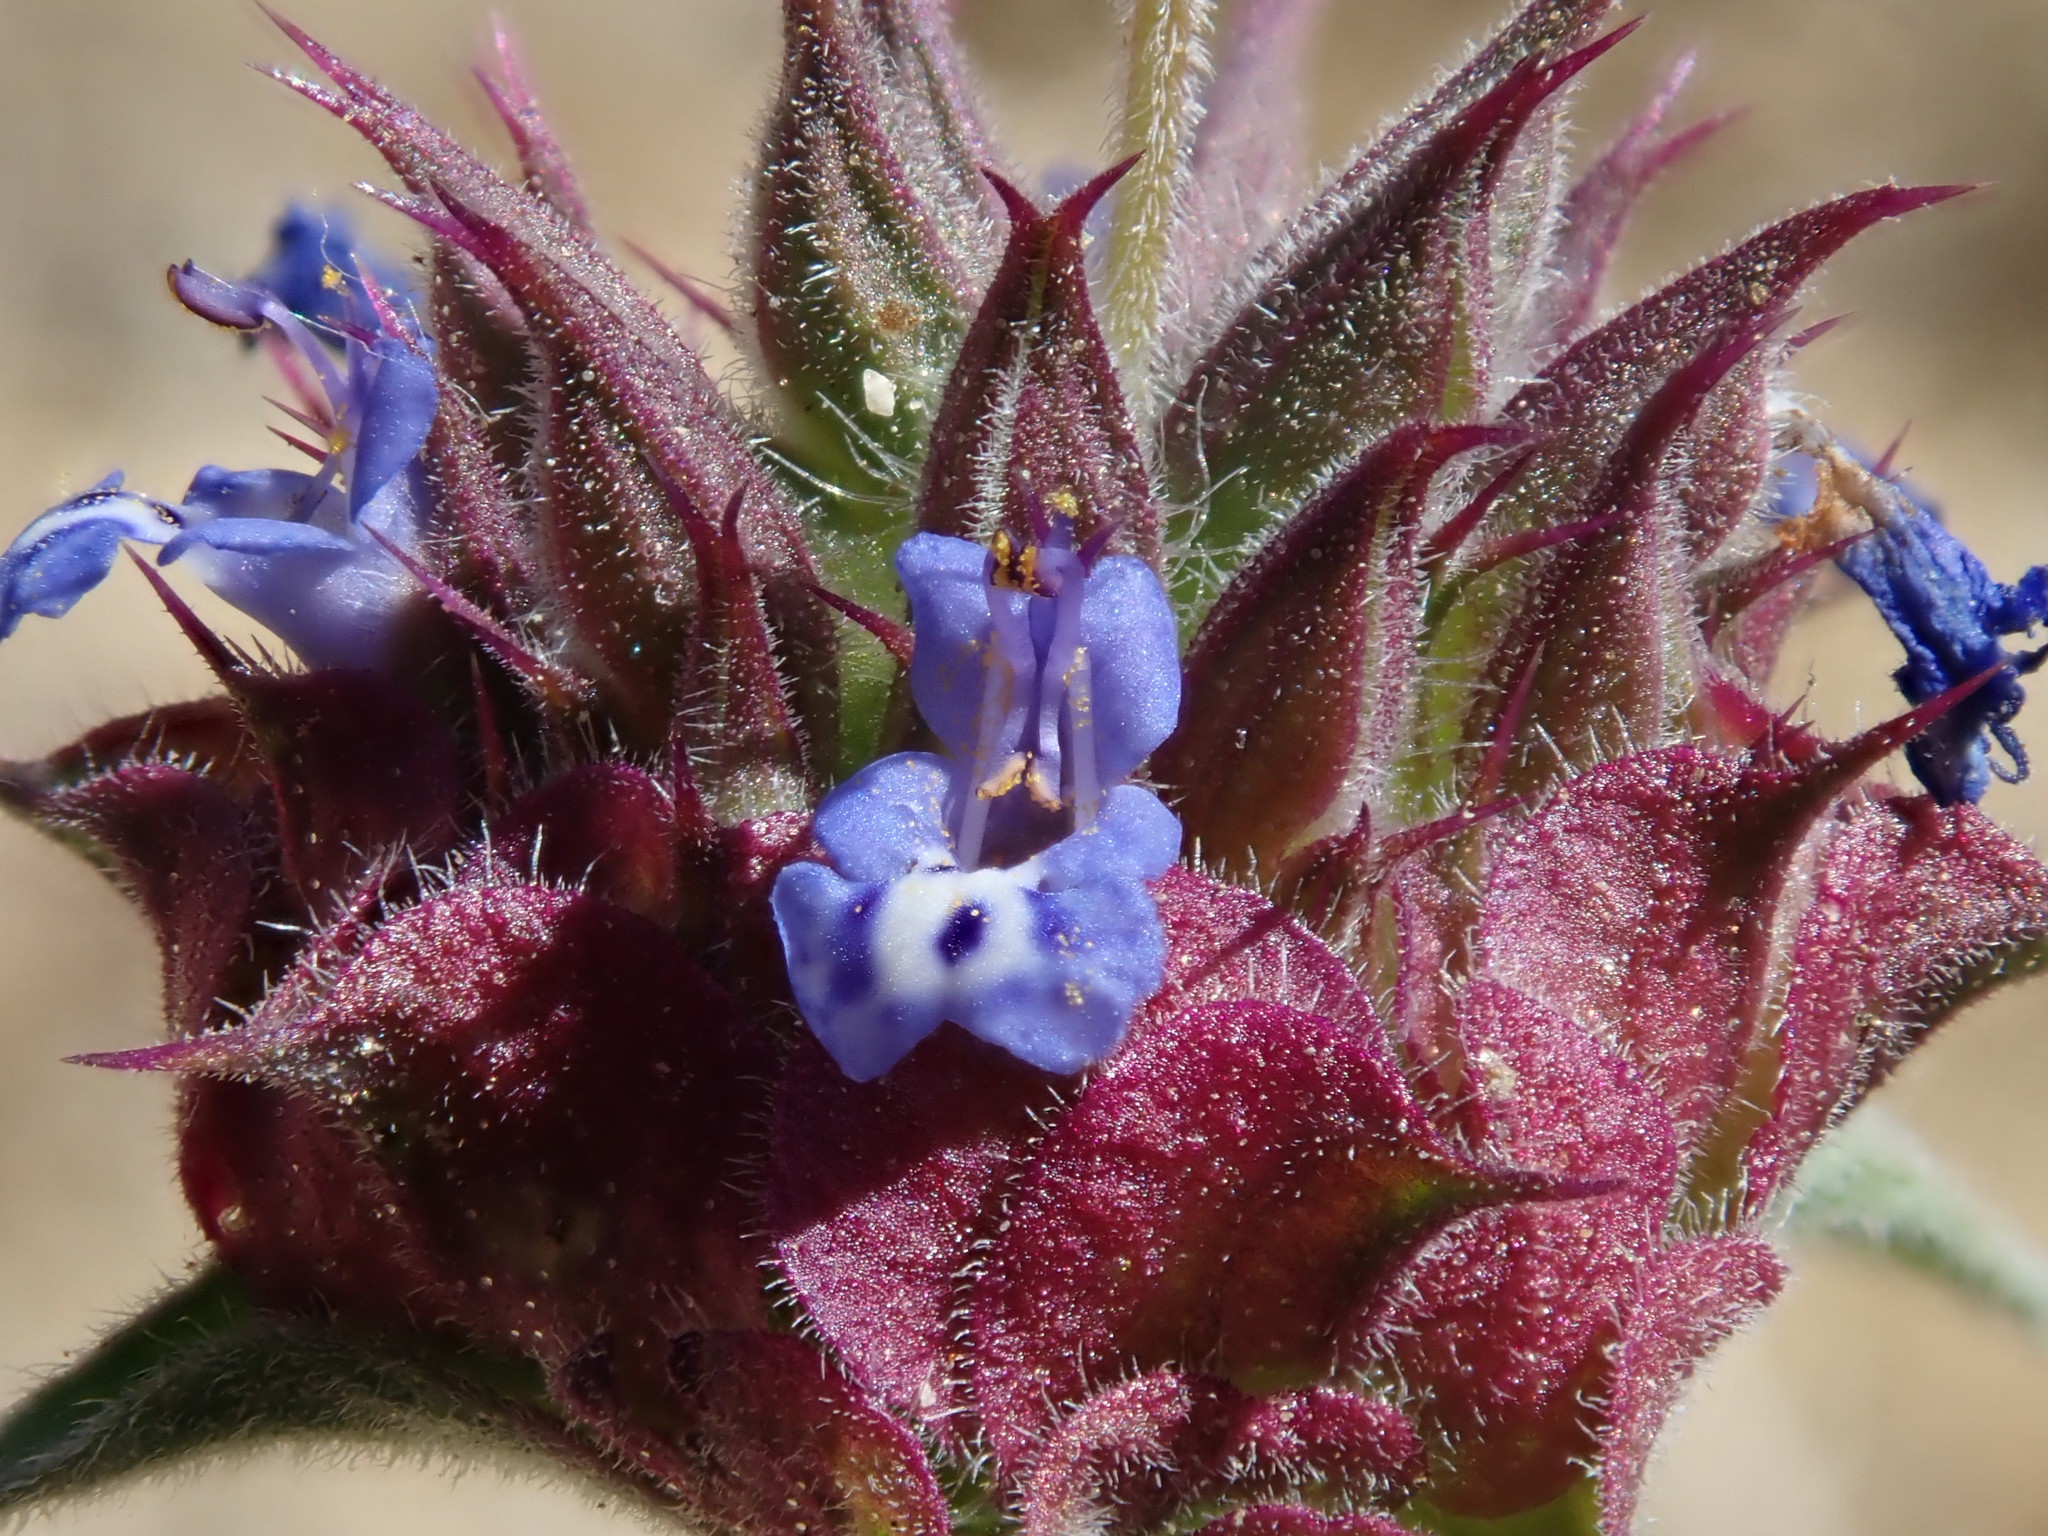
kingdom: Plantae
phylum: Tracheophyta
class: Magnoliopsida
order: Lamiales
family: Lamiaceae
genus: Salvia
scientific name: Salvia columbariae
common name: Chia
